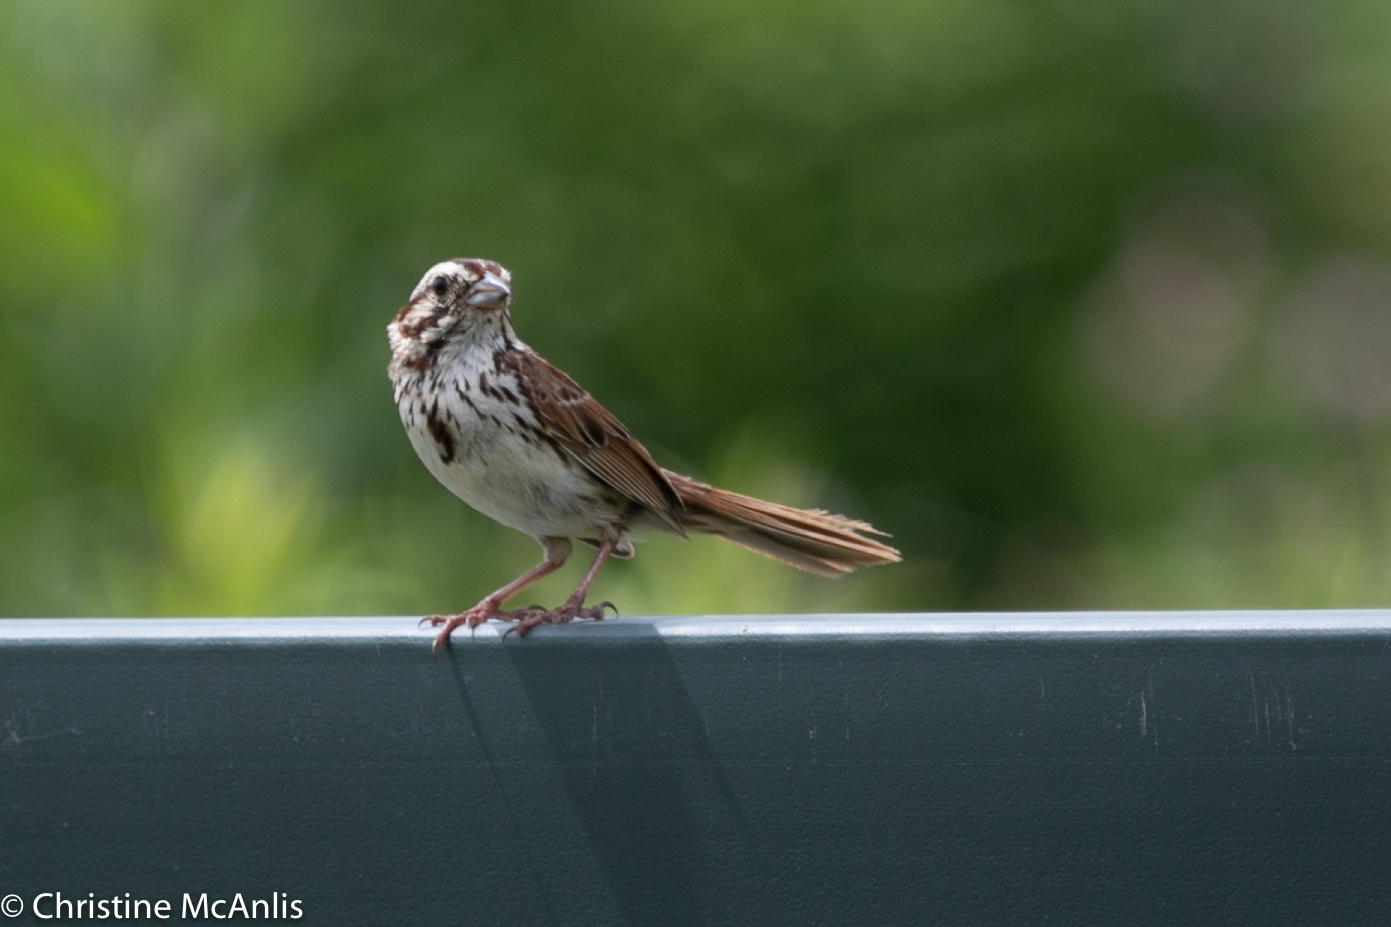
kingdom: Animalia
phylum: Chordata
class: Aves
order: Passeriformes
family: Passerellidae
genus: Melospiza
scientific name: Melospiza melodia
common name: Song sparrow
